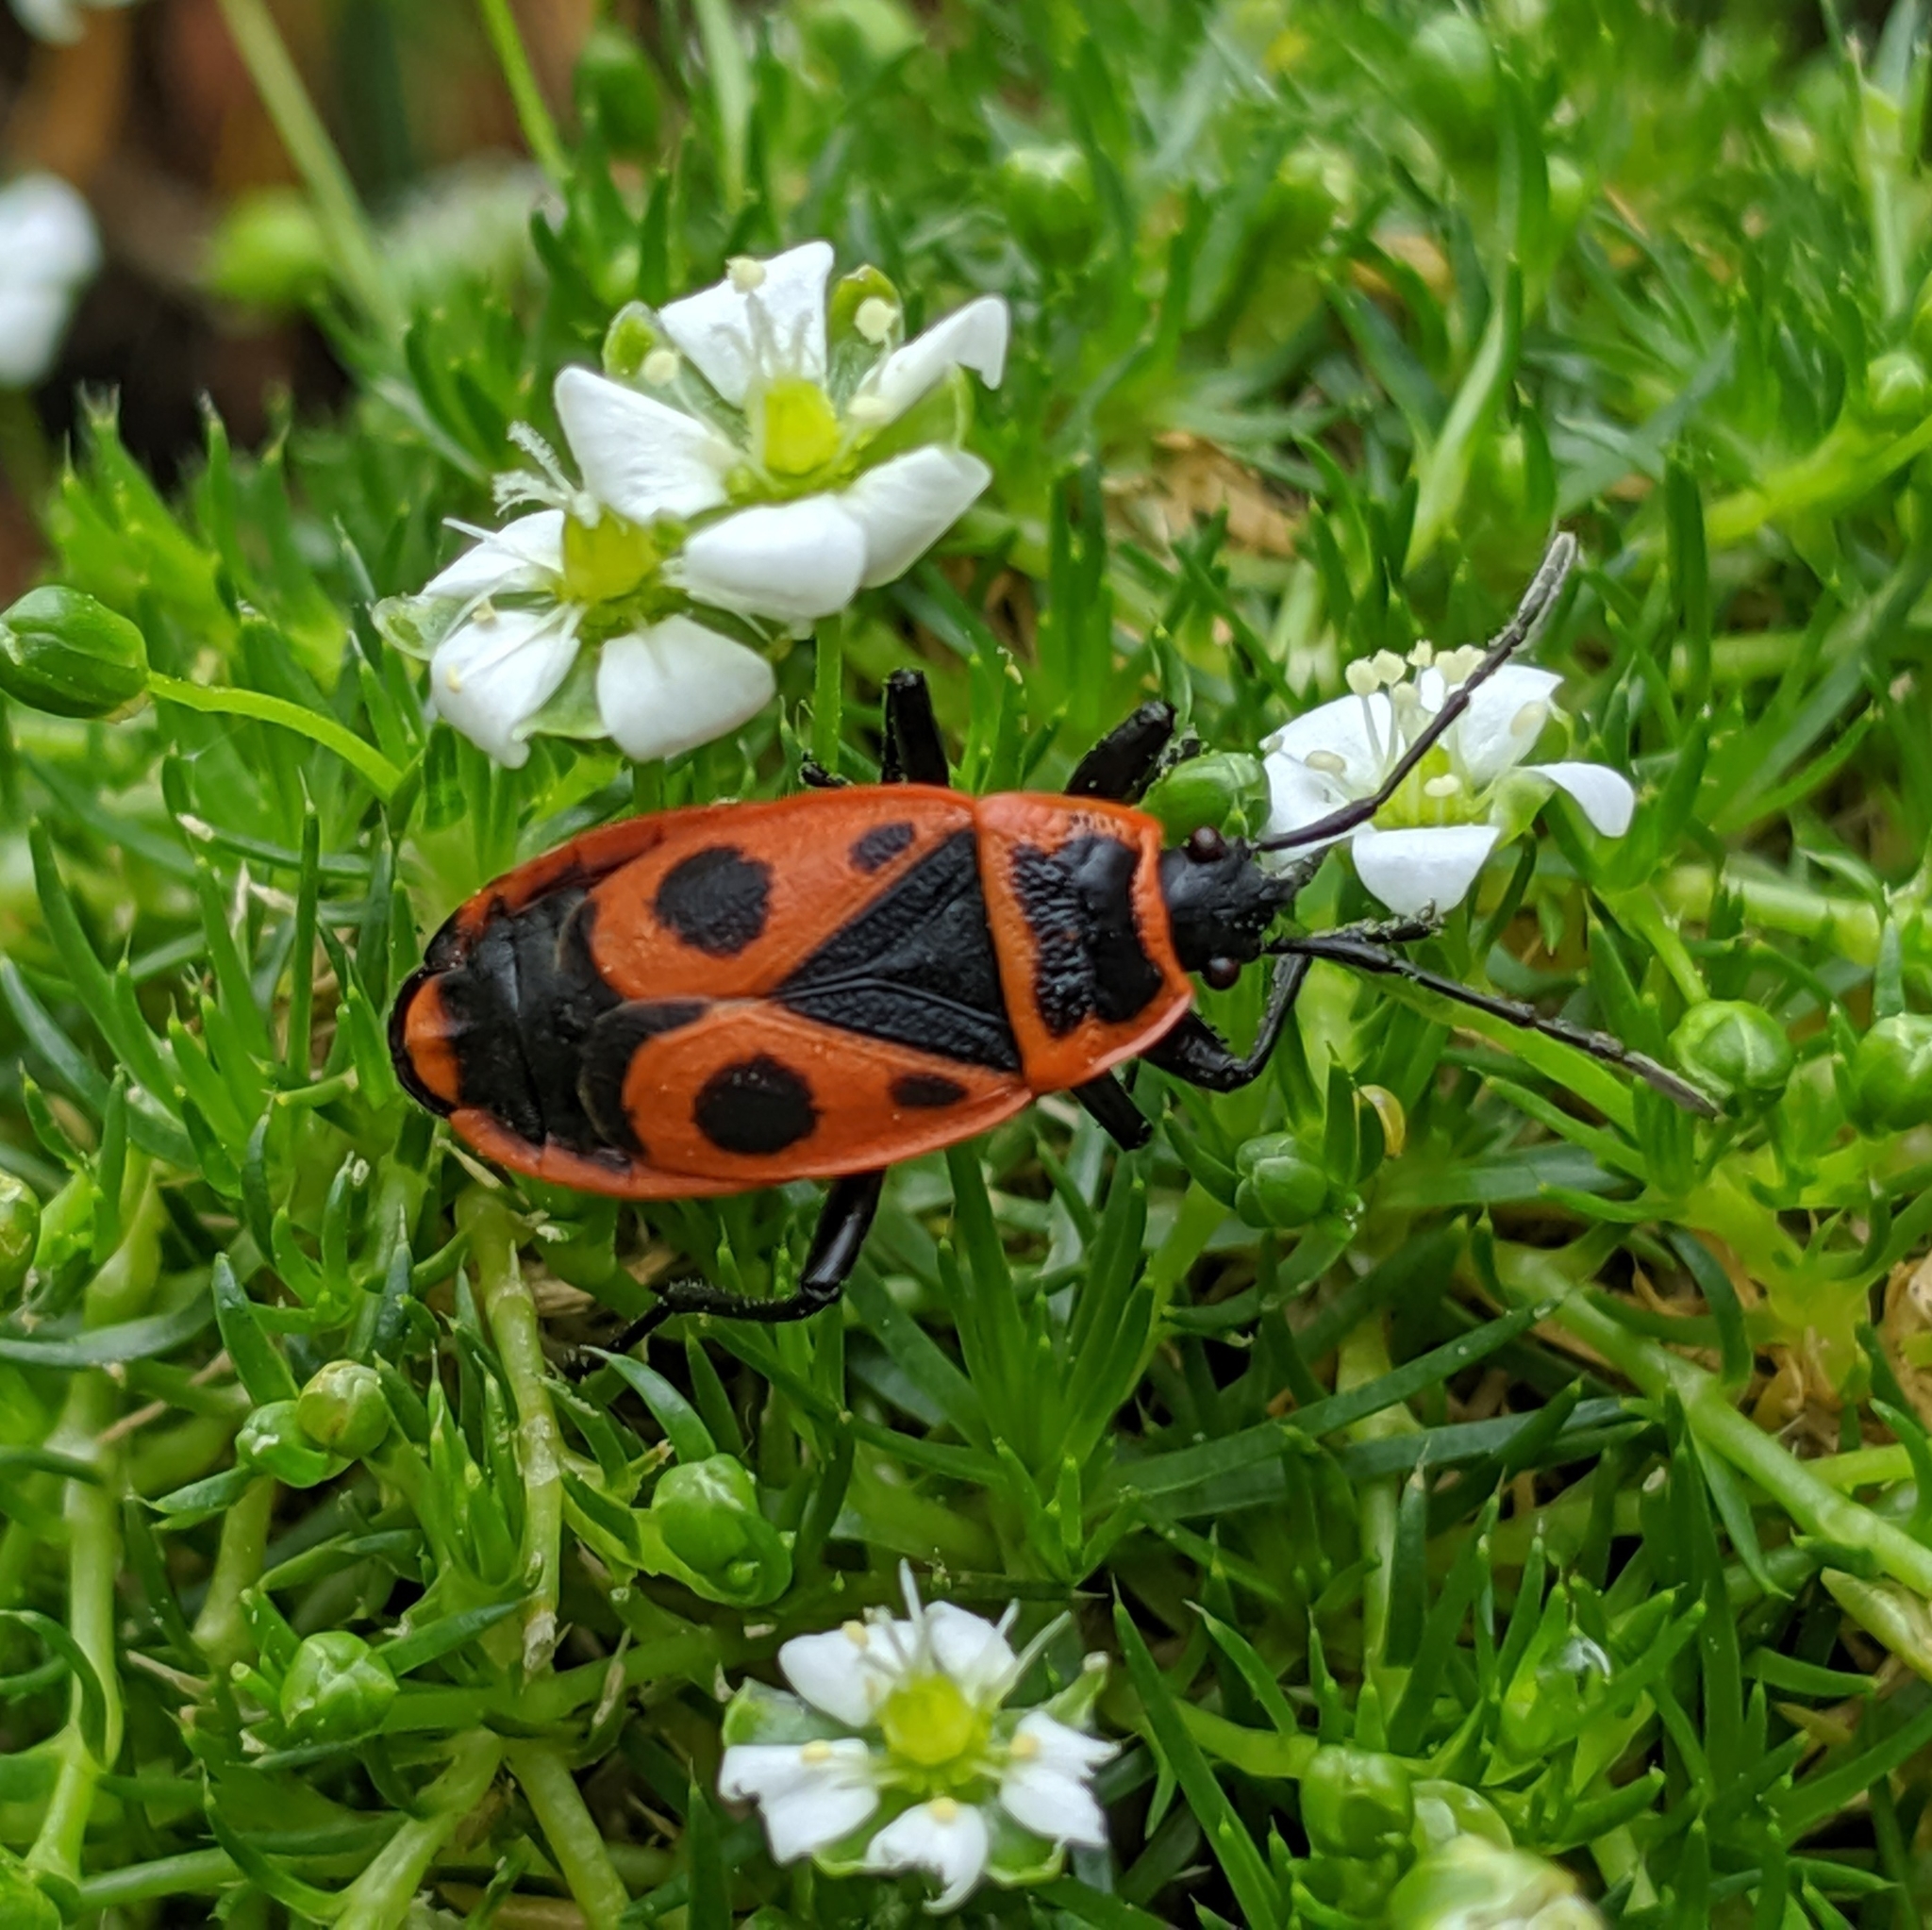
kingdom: Animalia
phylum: Arthropoda
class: Insecta
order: Hemiptera
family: Pyrrhocoridae
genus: Pyrrhocoris
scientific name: Pyrrhocoris apterus
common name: Firebug
